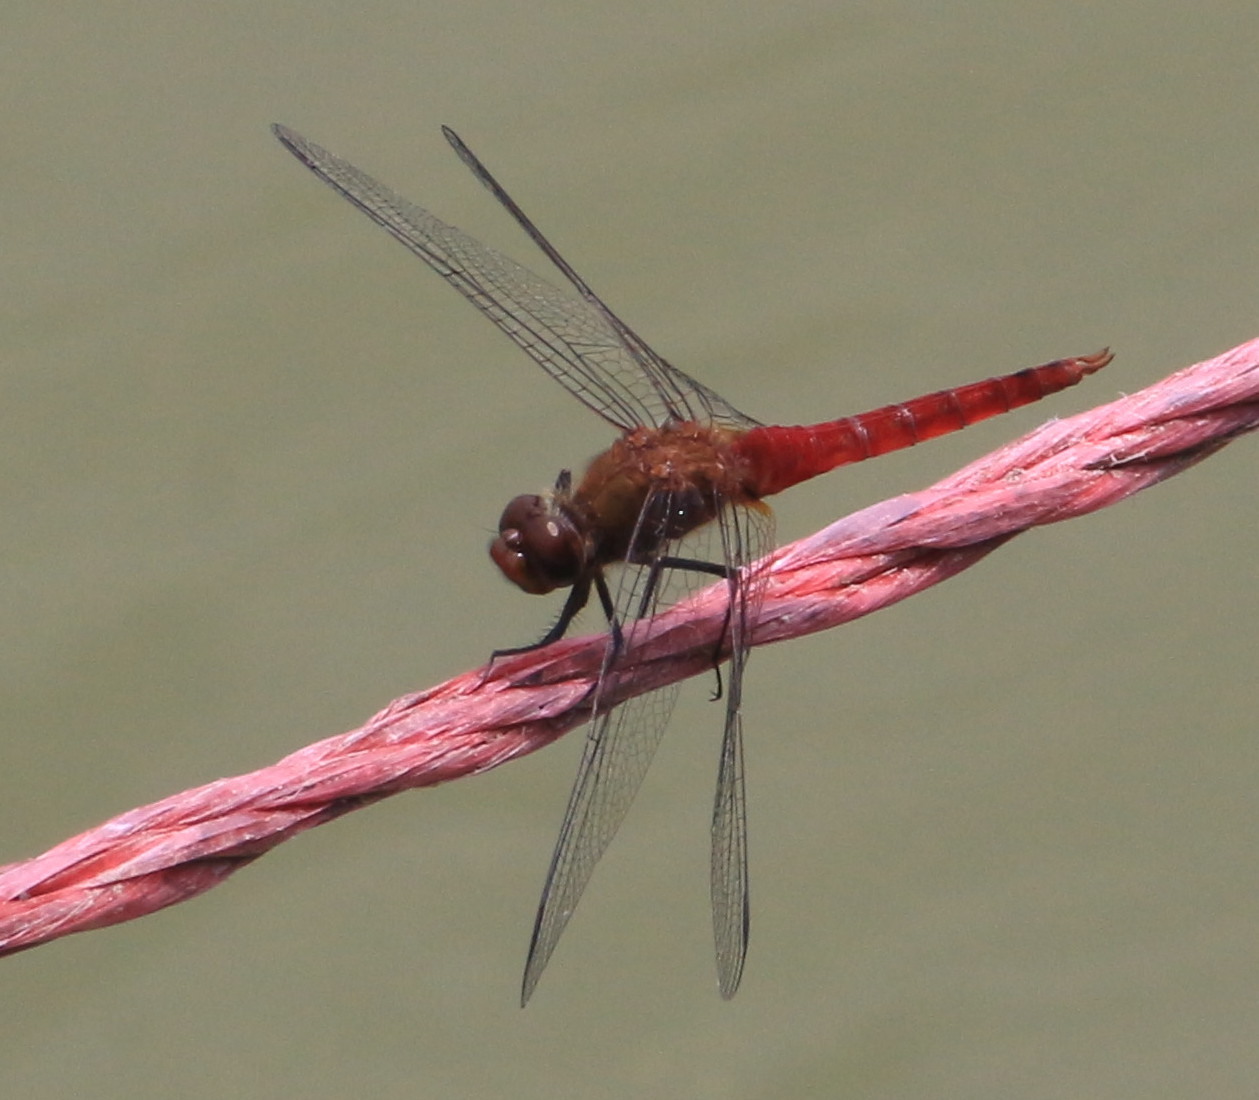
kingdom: Animalia
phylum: Arthropoda
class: Insecta
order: Odonata
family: Libellulidae
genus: Brachymesia
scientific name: Brachymesia furcata
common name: Red-taled pennant
